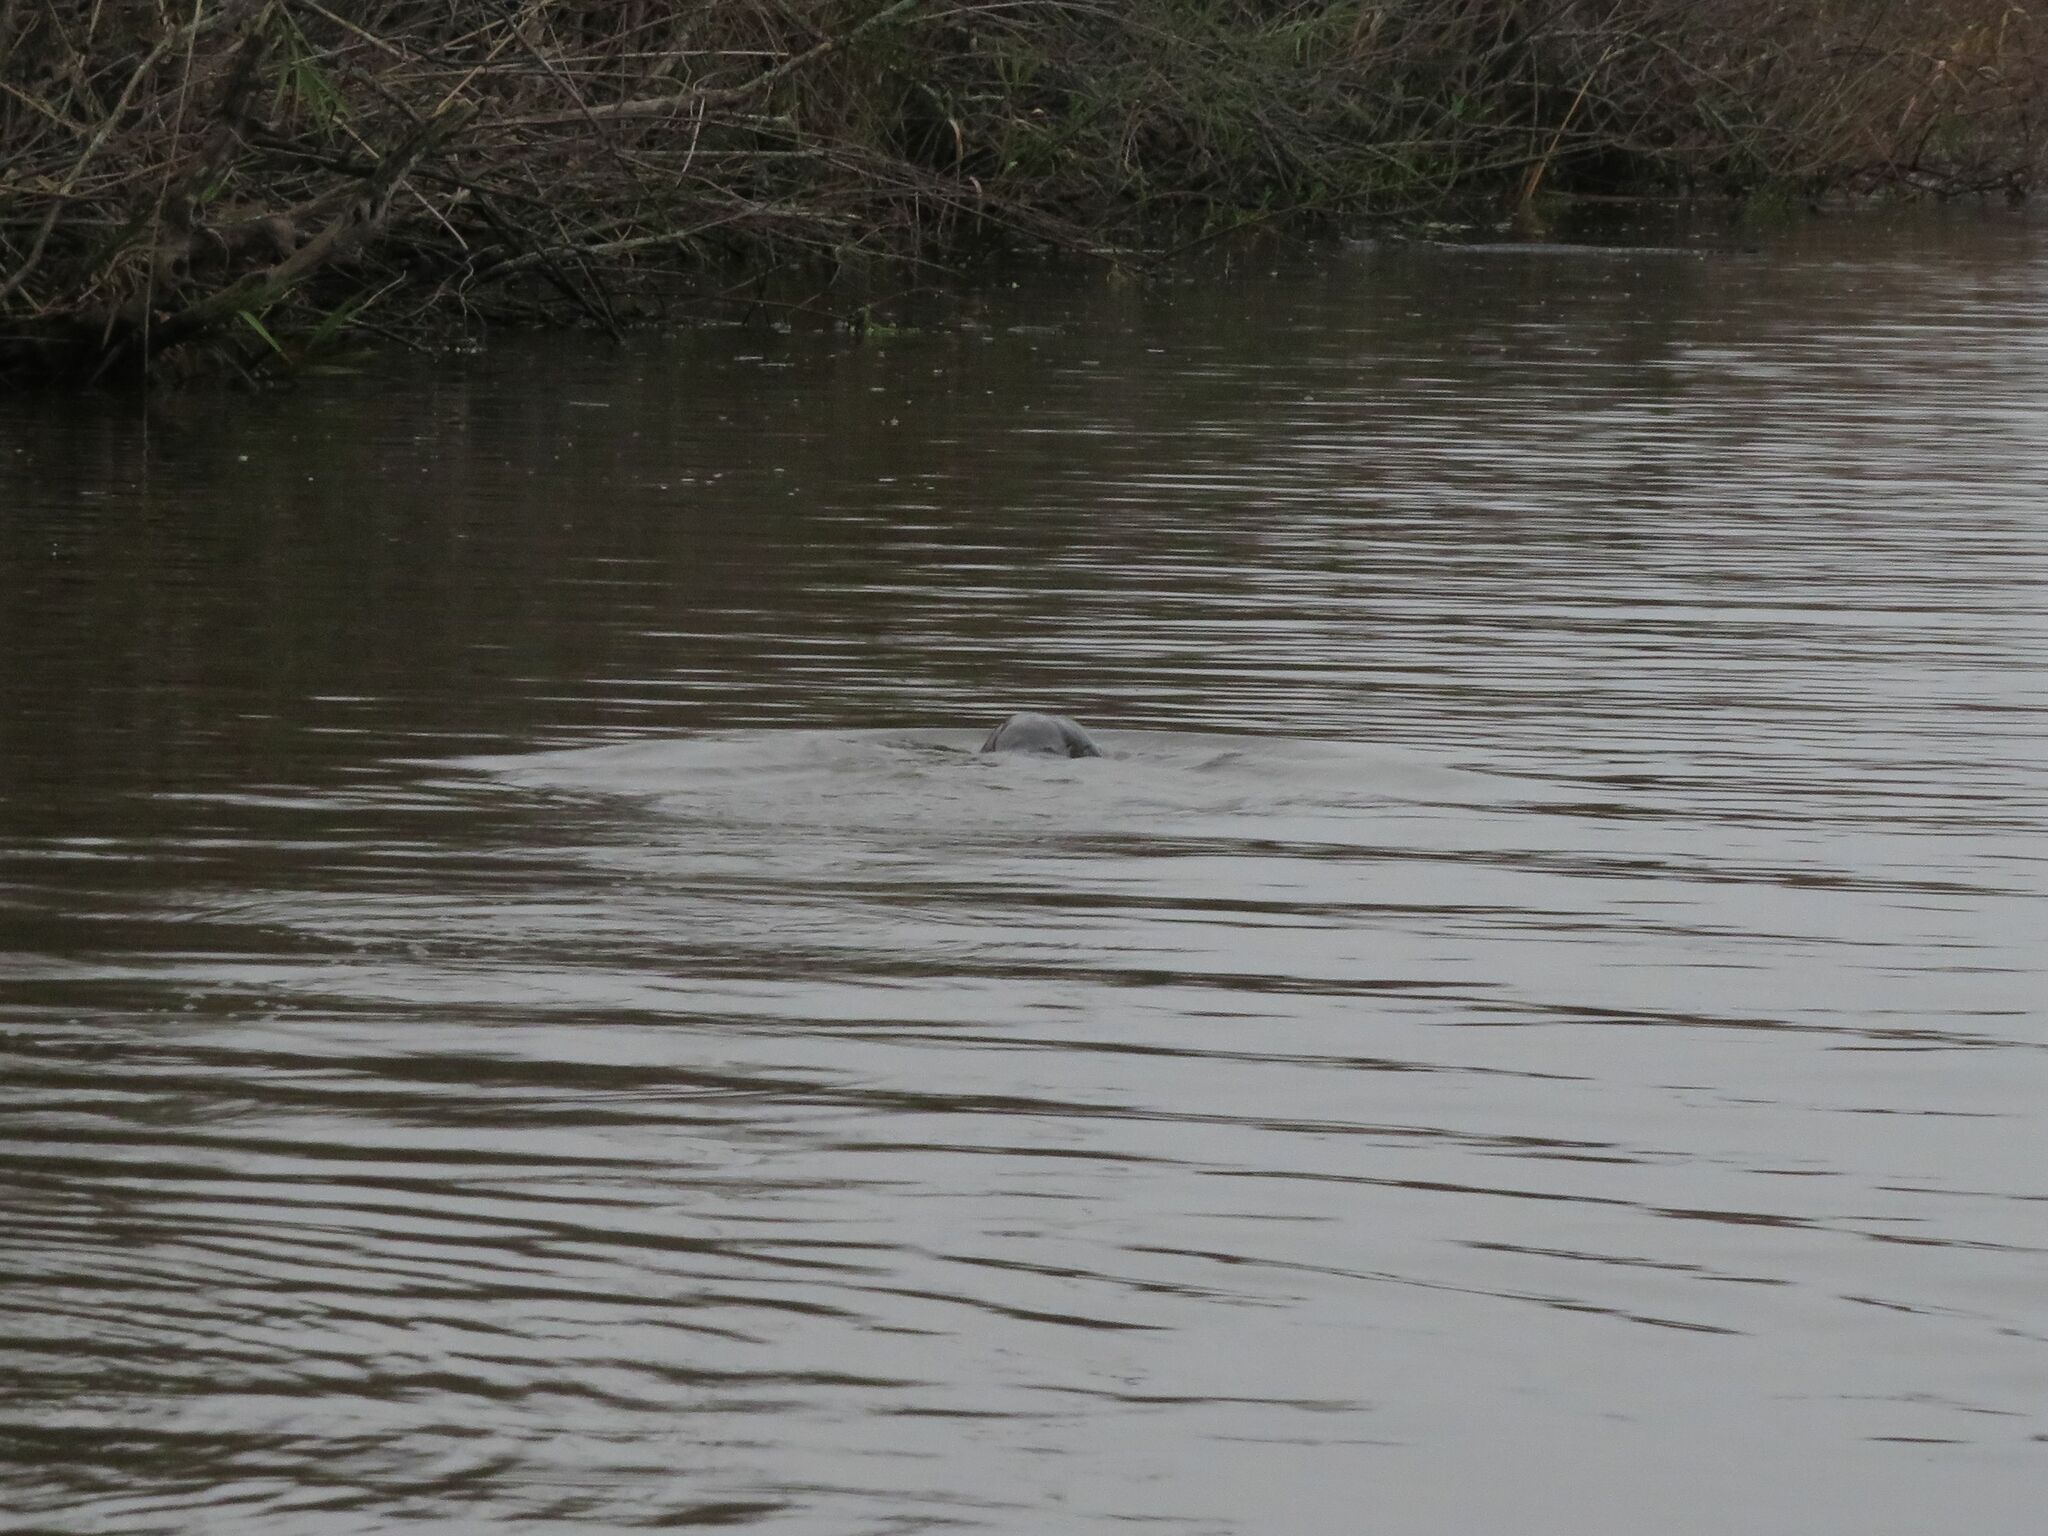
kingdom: Animalia
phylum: Chordata
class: Mammalia
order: Carnivora
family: Mustelidae
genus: Lontra
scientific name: Lontra longicaudis
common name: Neotropical otter
